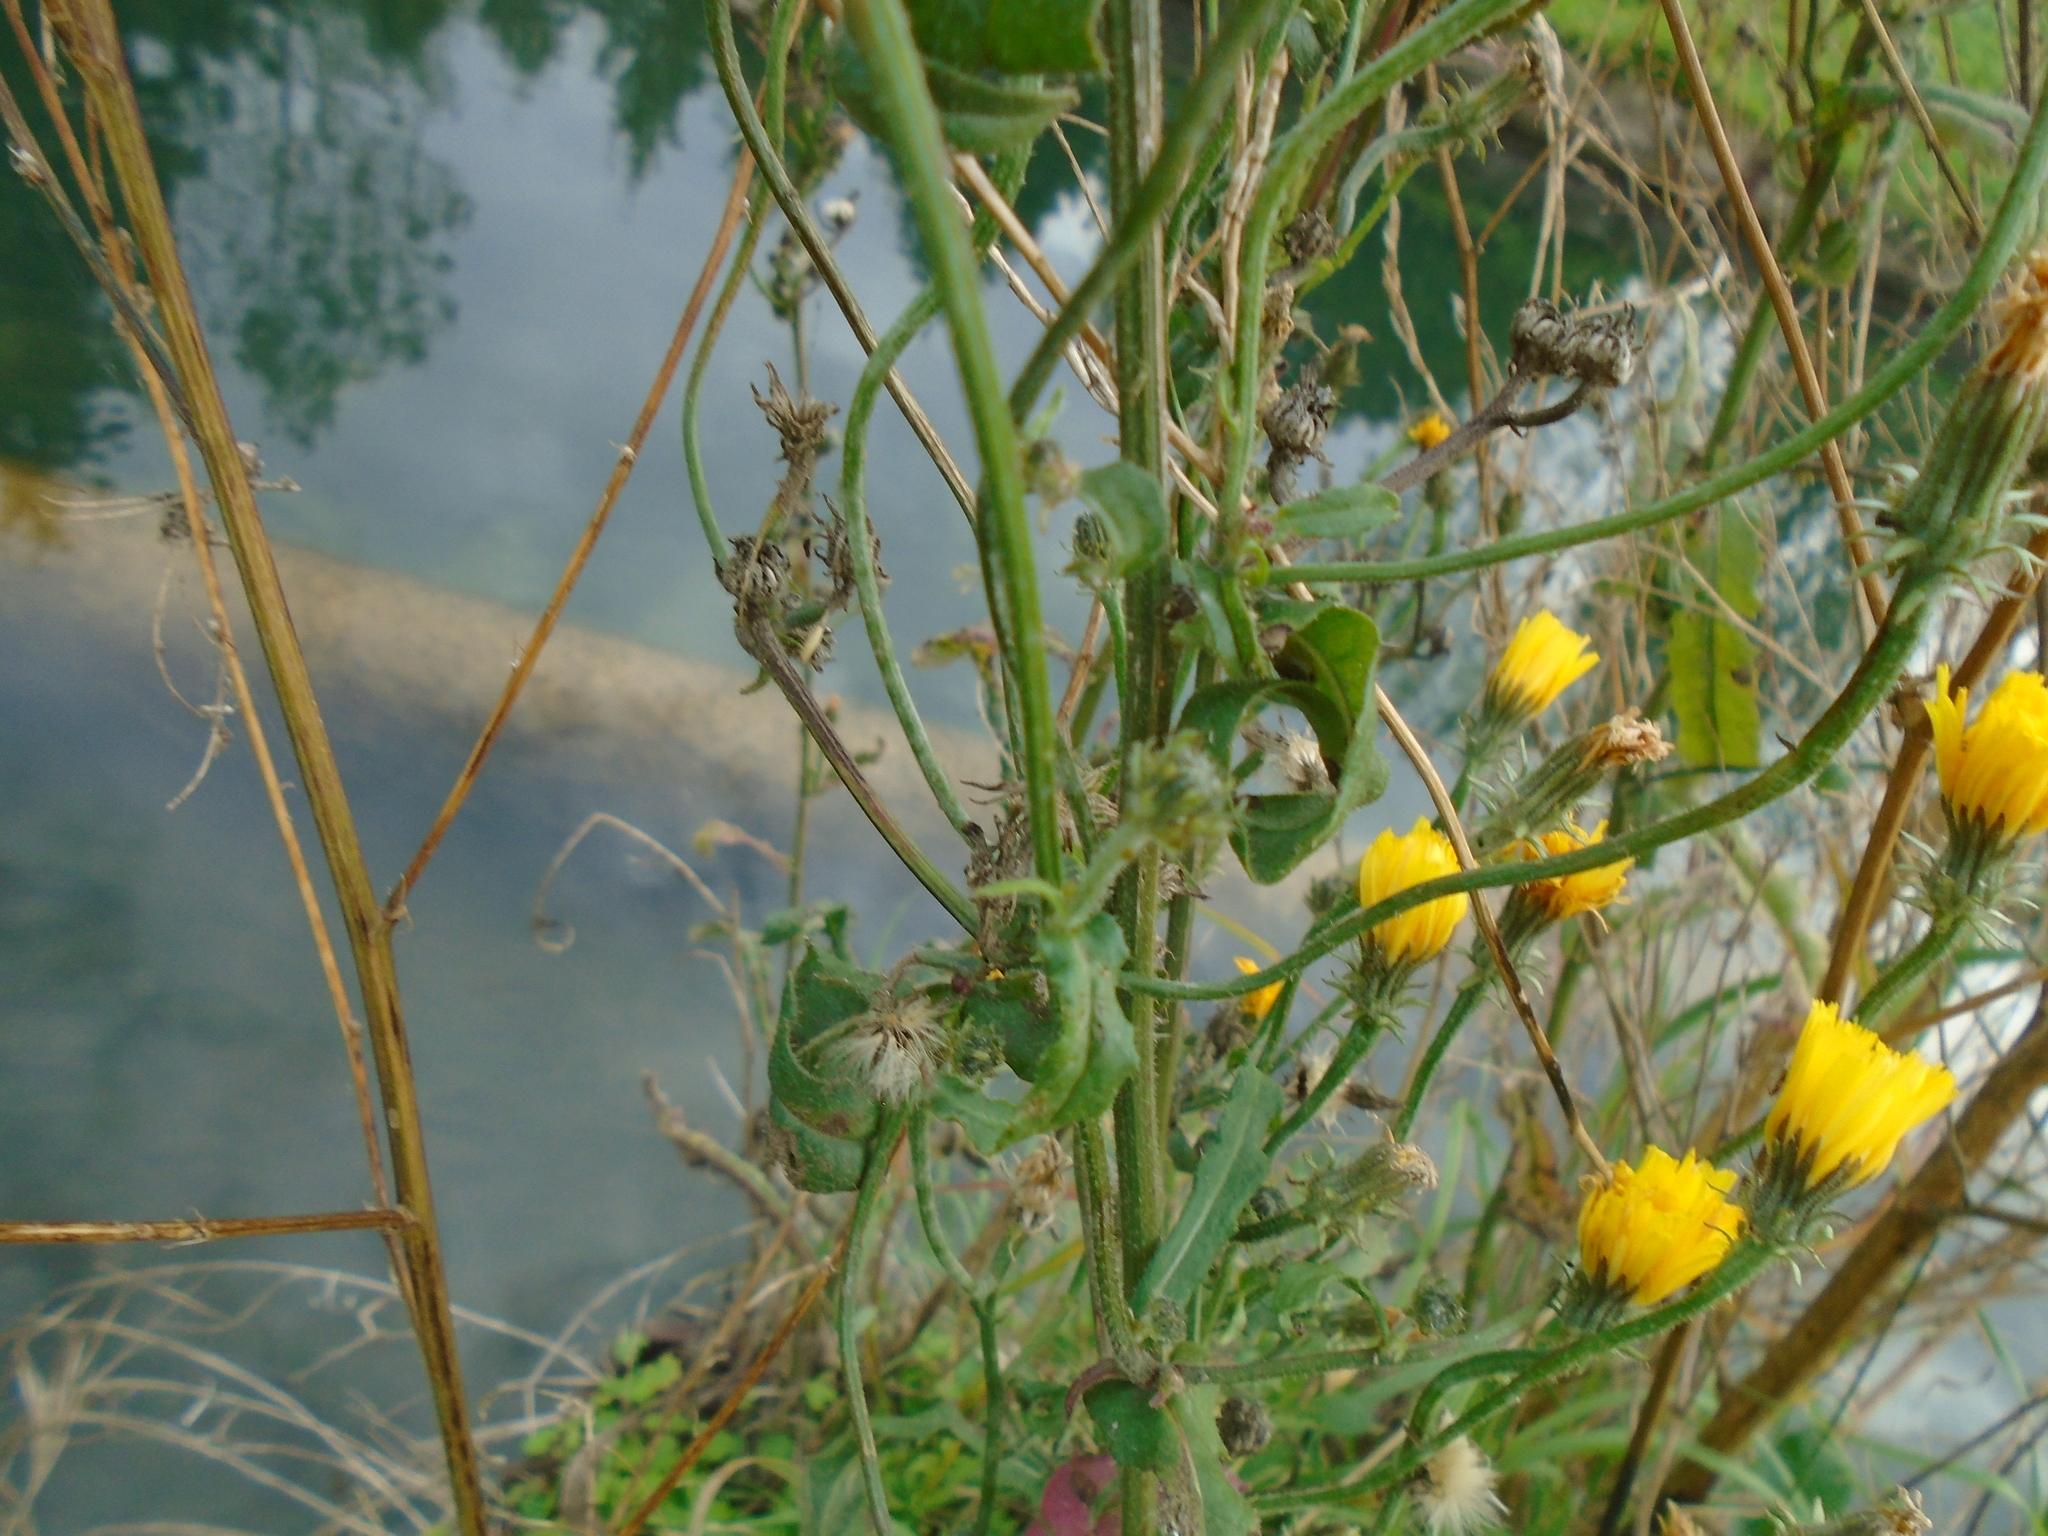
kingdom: Plantae
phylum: Tracheophyta
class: Magnoliopsida
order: Asterales
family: Asteraceae
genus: Picris
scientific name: Picris hieracioides
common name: Hawkweed oxtongue
